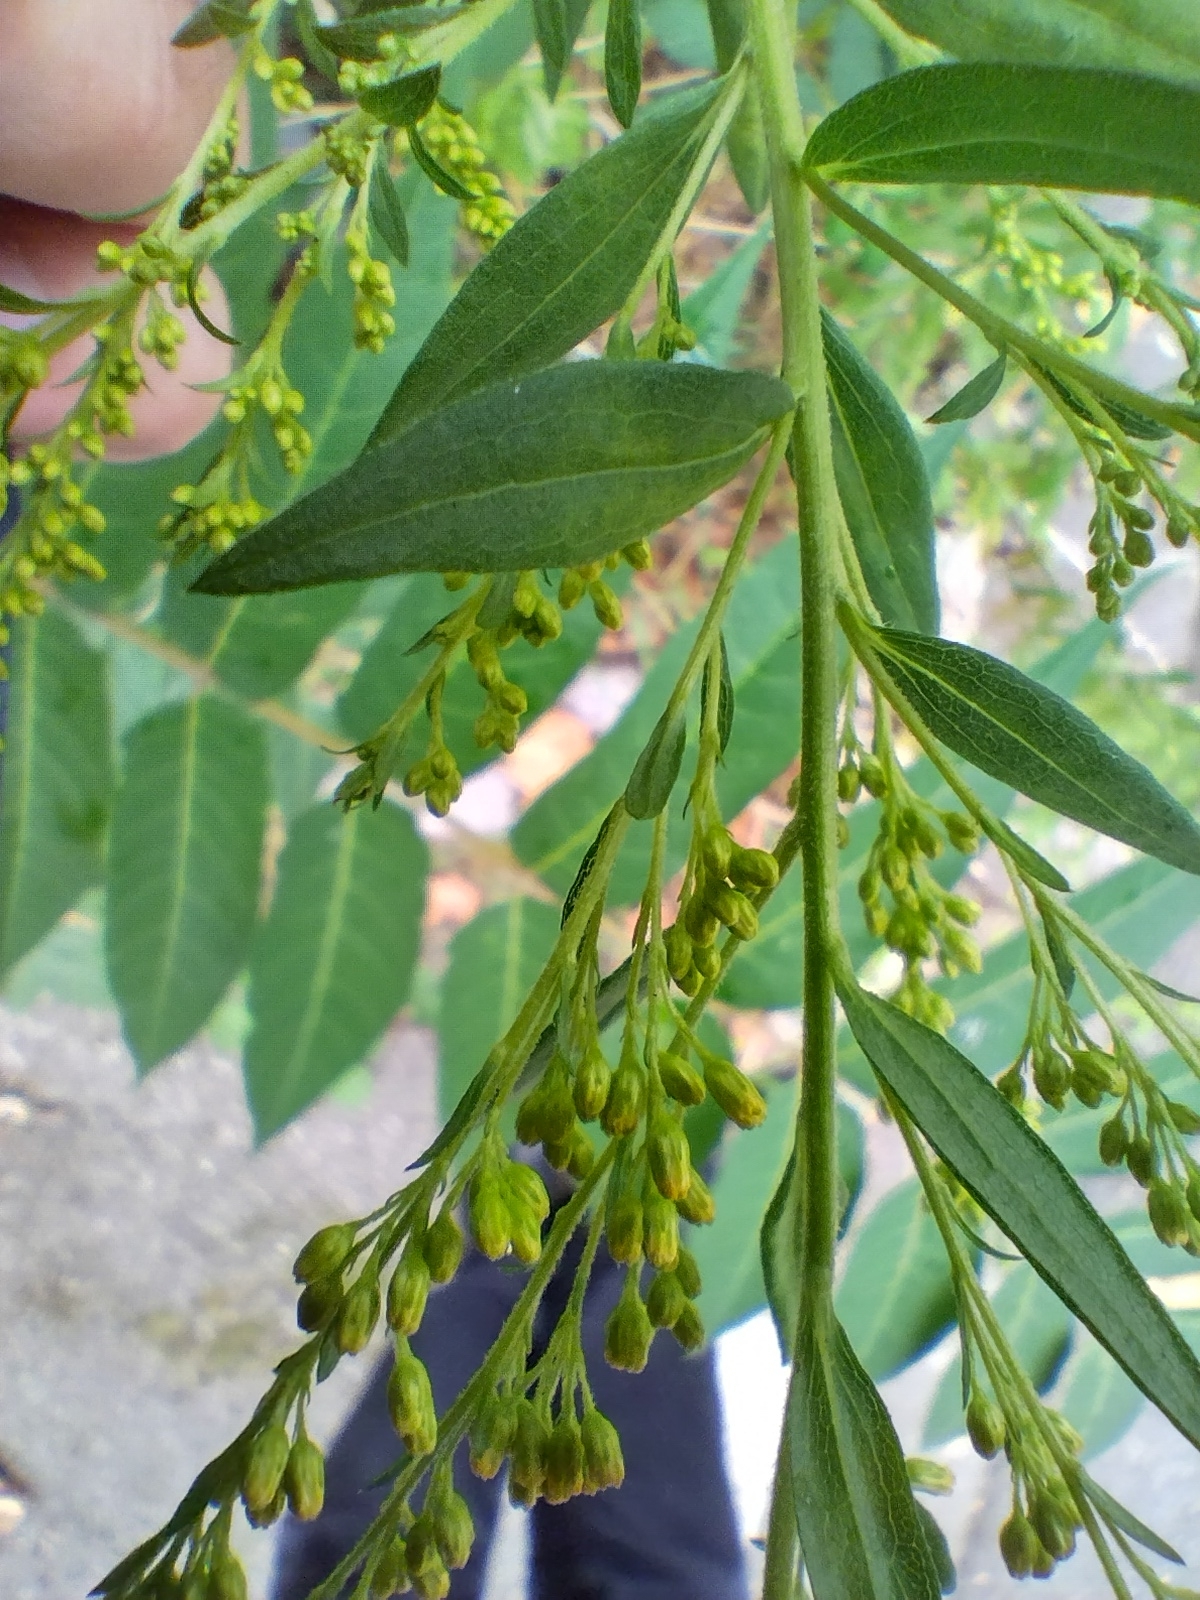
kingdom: Plantae
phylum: Tracheophyta
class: Magnoliopsida
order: Asterales
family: Asteraceae
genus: Solidago
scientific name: Solidago gigantea
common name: Giant goldenrod
